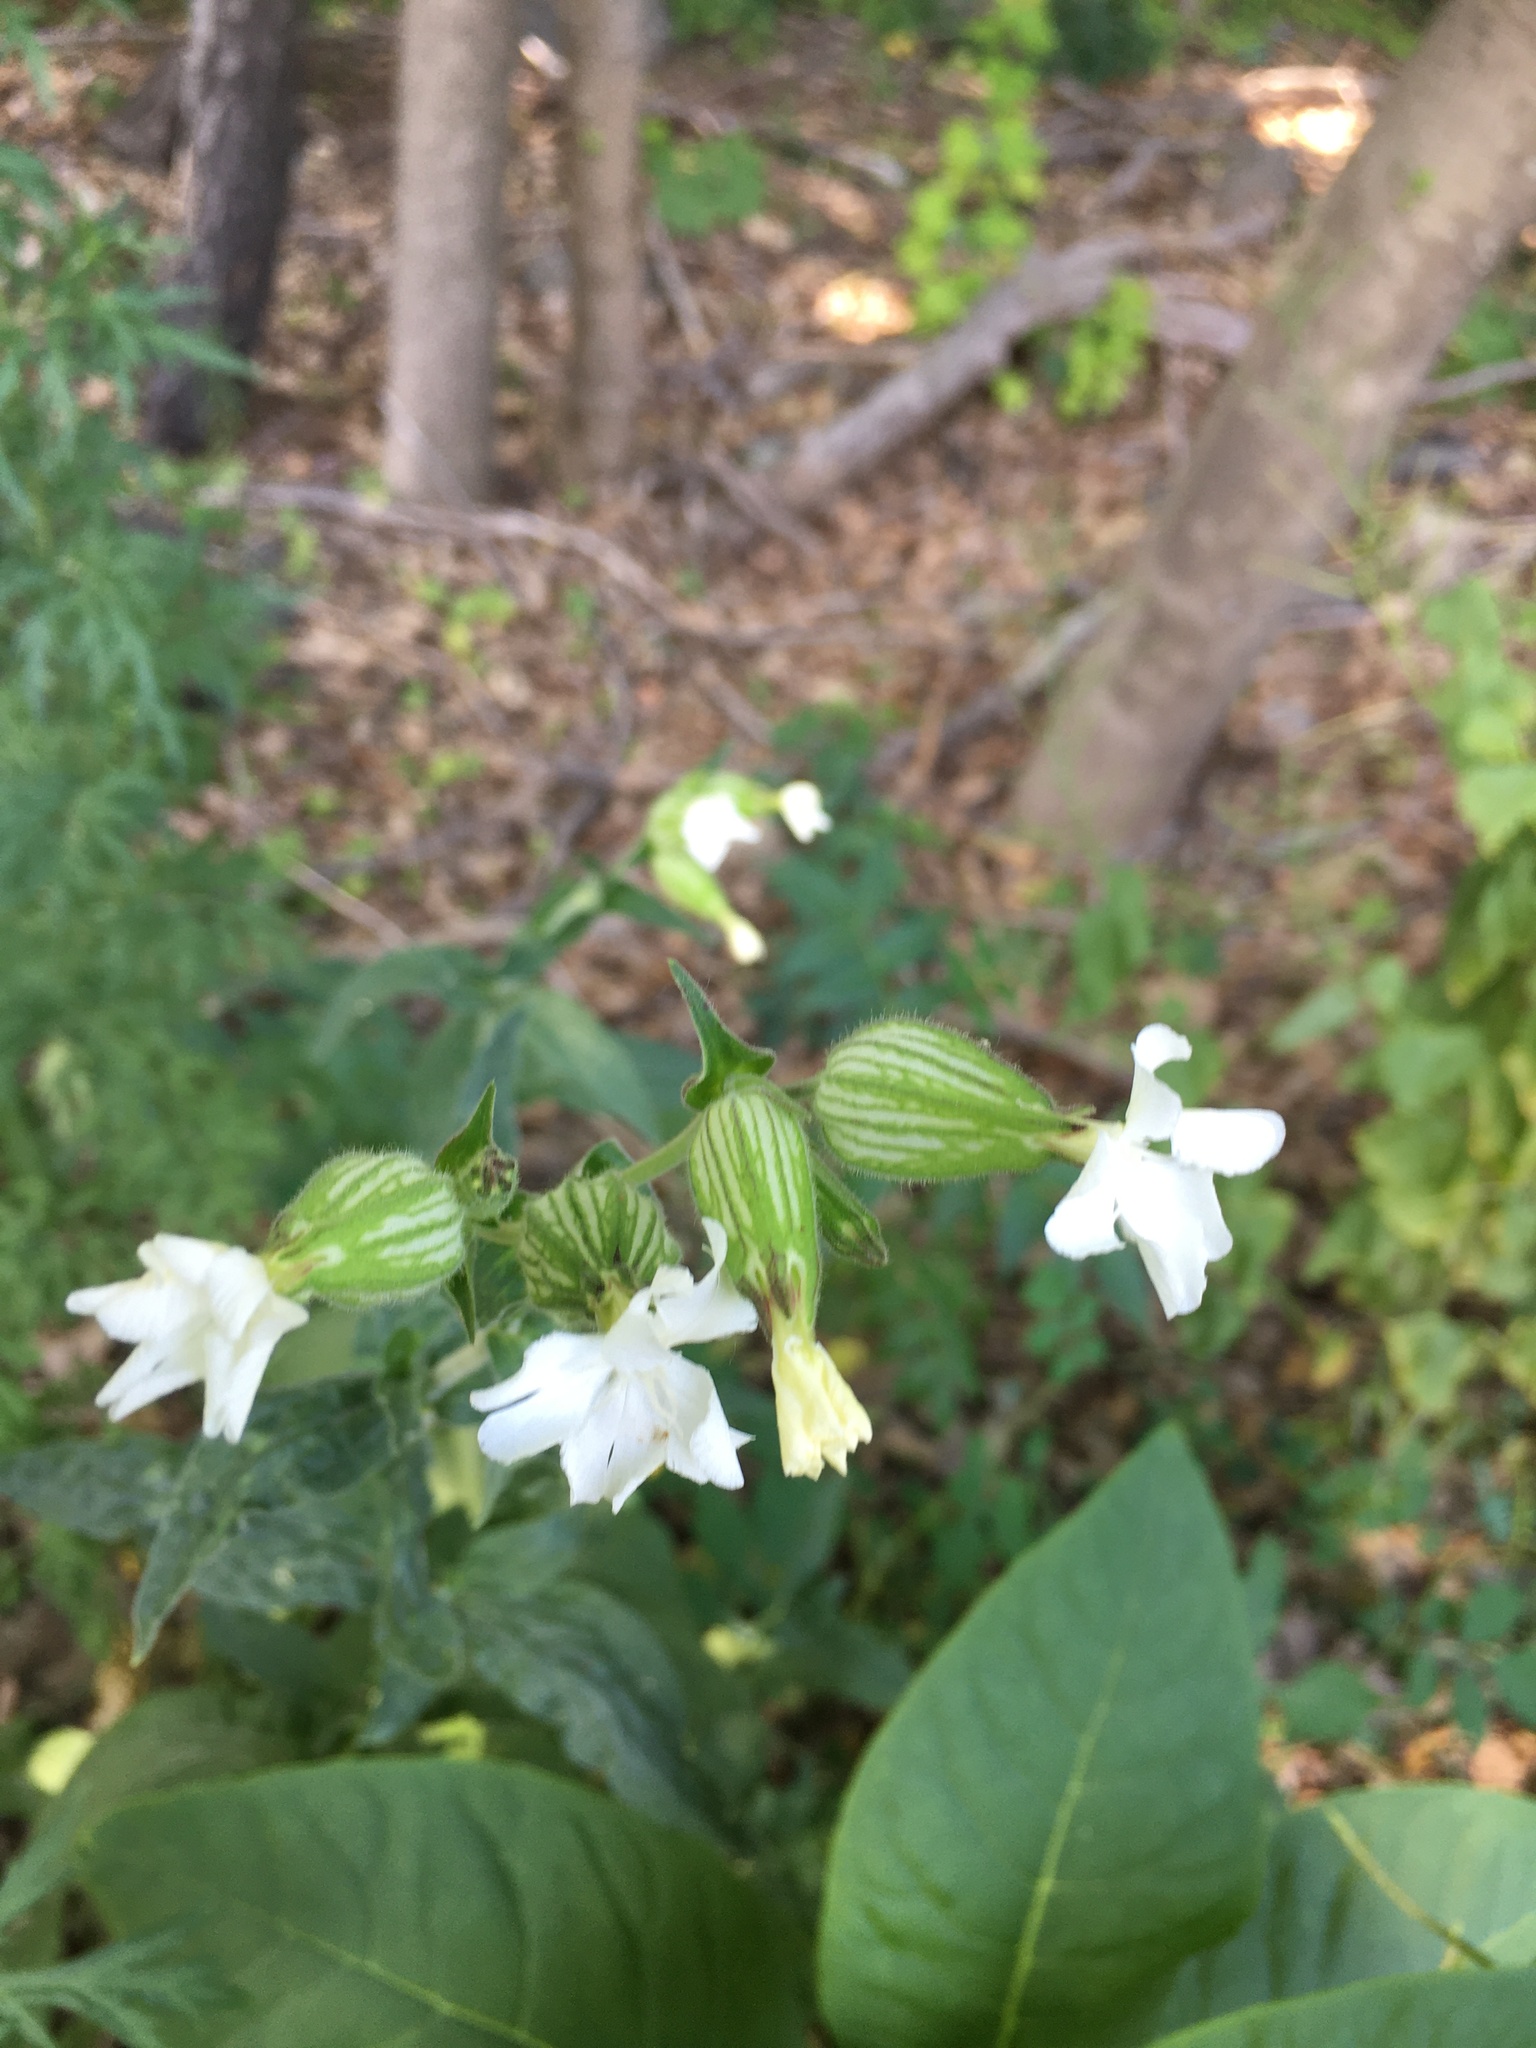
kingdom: Plantae
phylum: Tracheophyta
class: Magnoliopsida
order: Caryophyllales
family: Caryophyllaceae
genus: Silene
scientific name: Silene latifolia
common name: White campion
